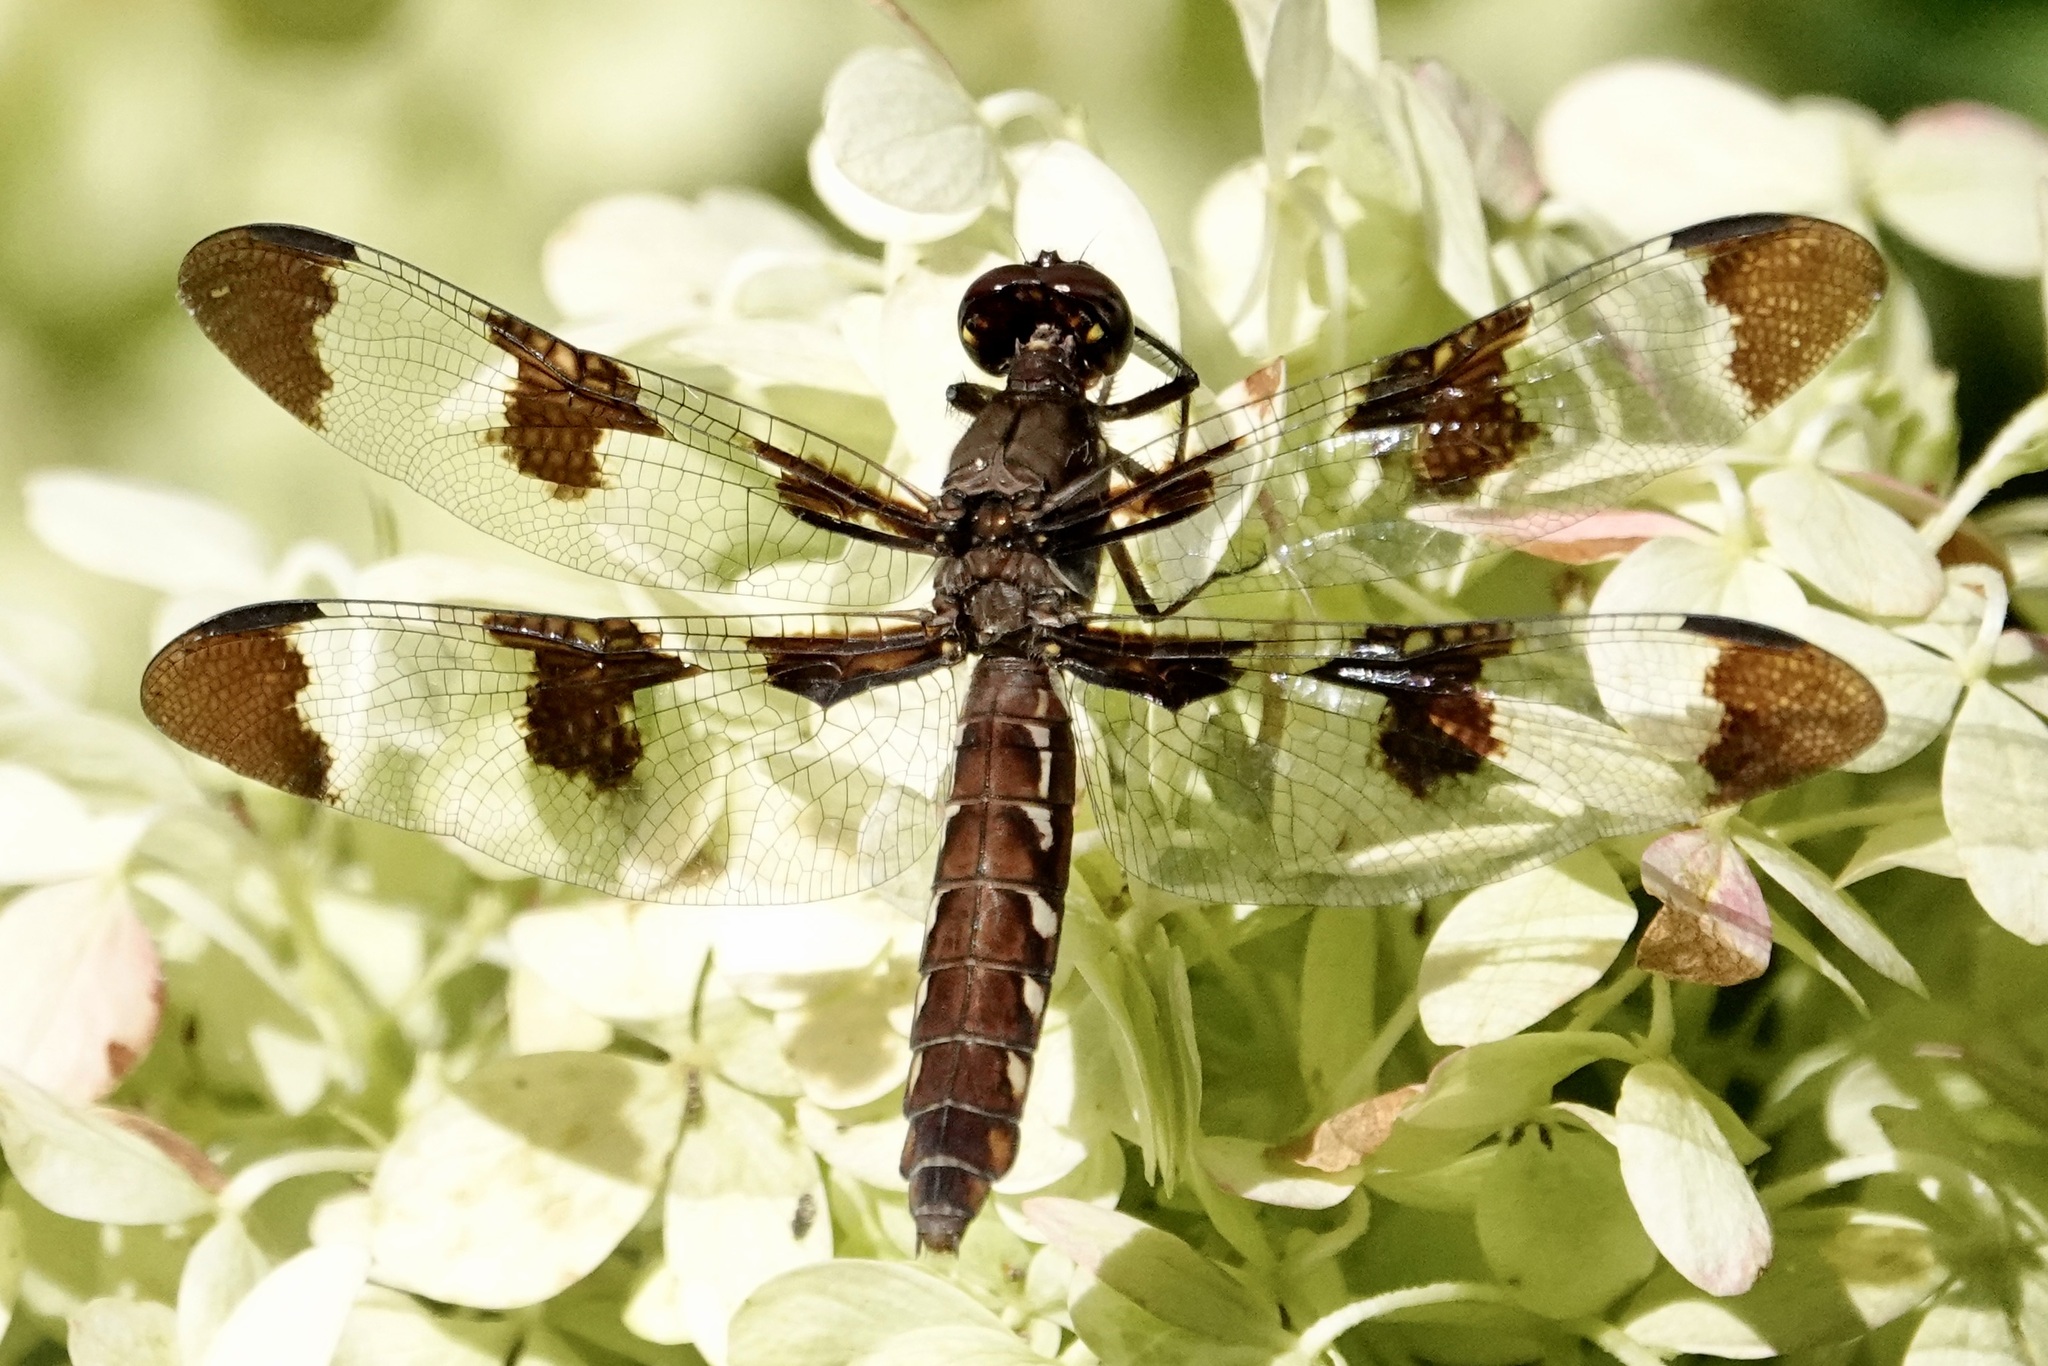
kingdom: Animalia
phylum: Arthropoda
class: Insecta
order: Odonata
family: Libellulidae
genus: Plathemis
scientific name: Plathemis lydia
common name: Common whitetail
